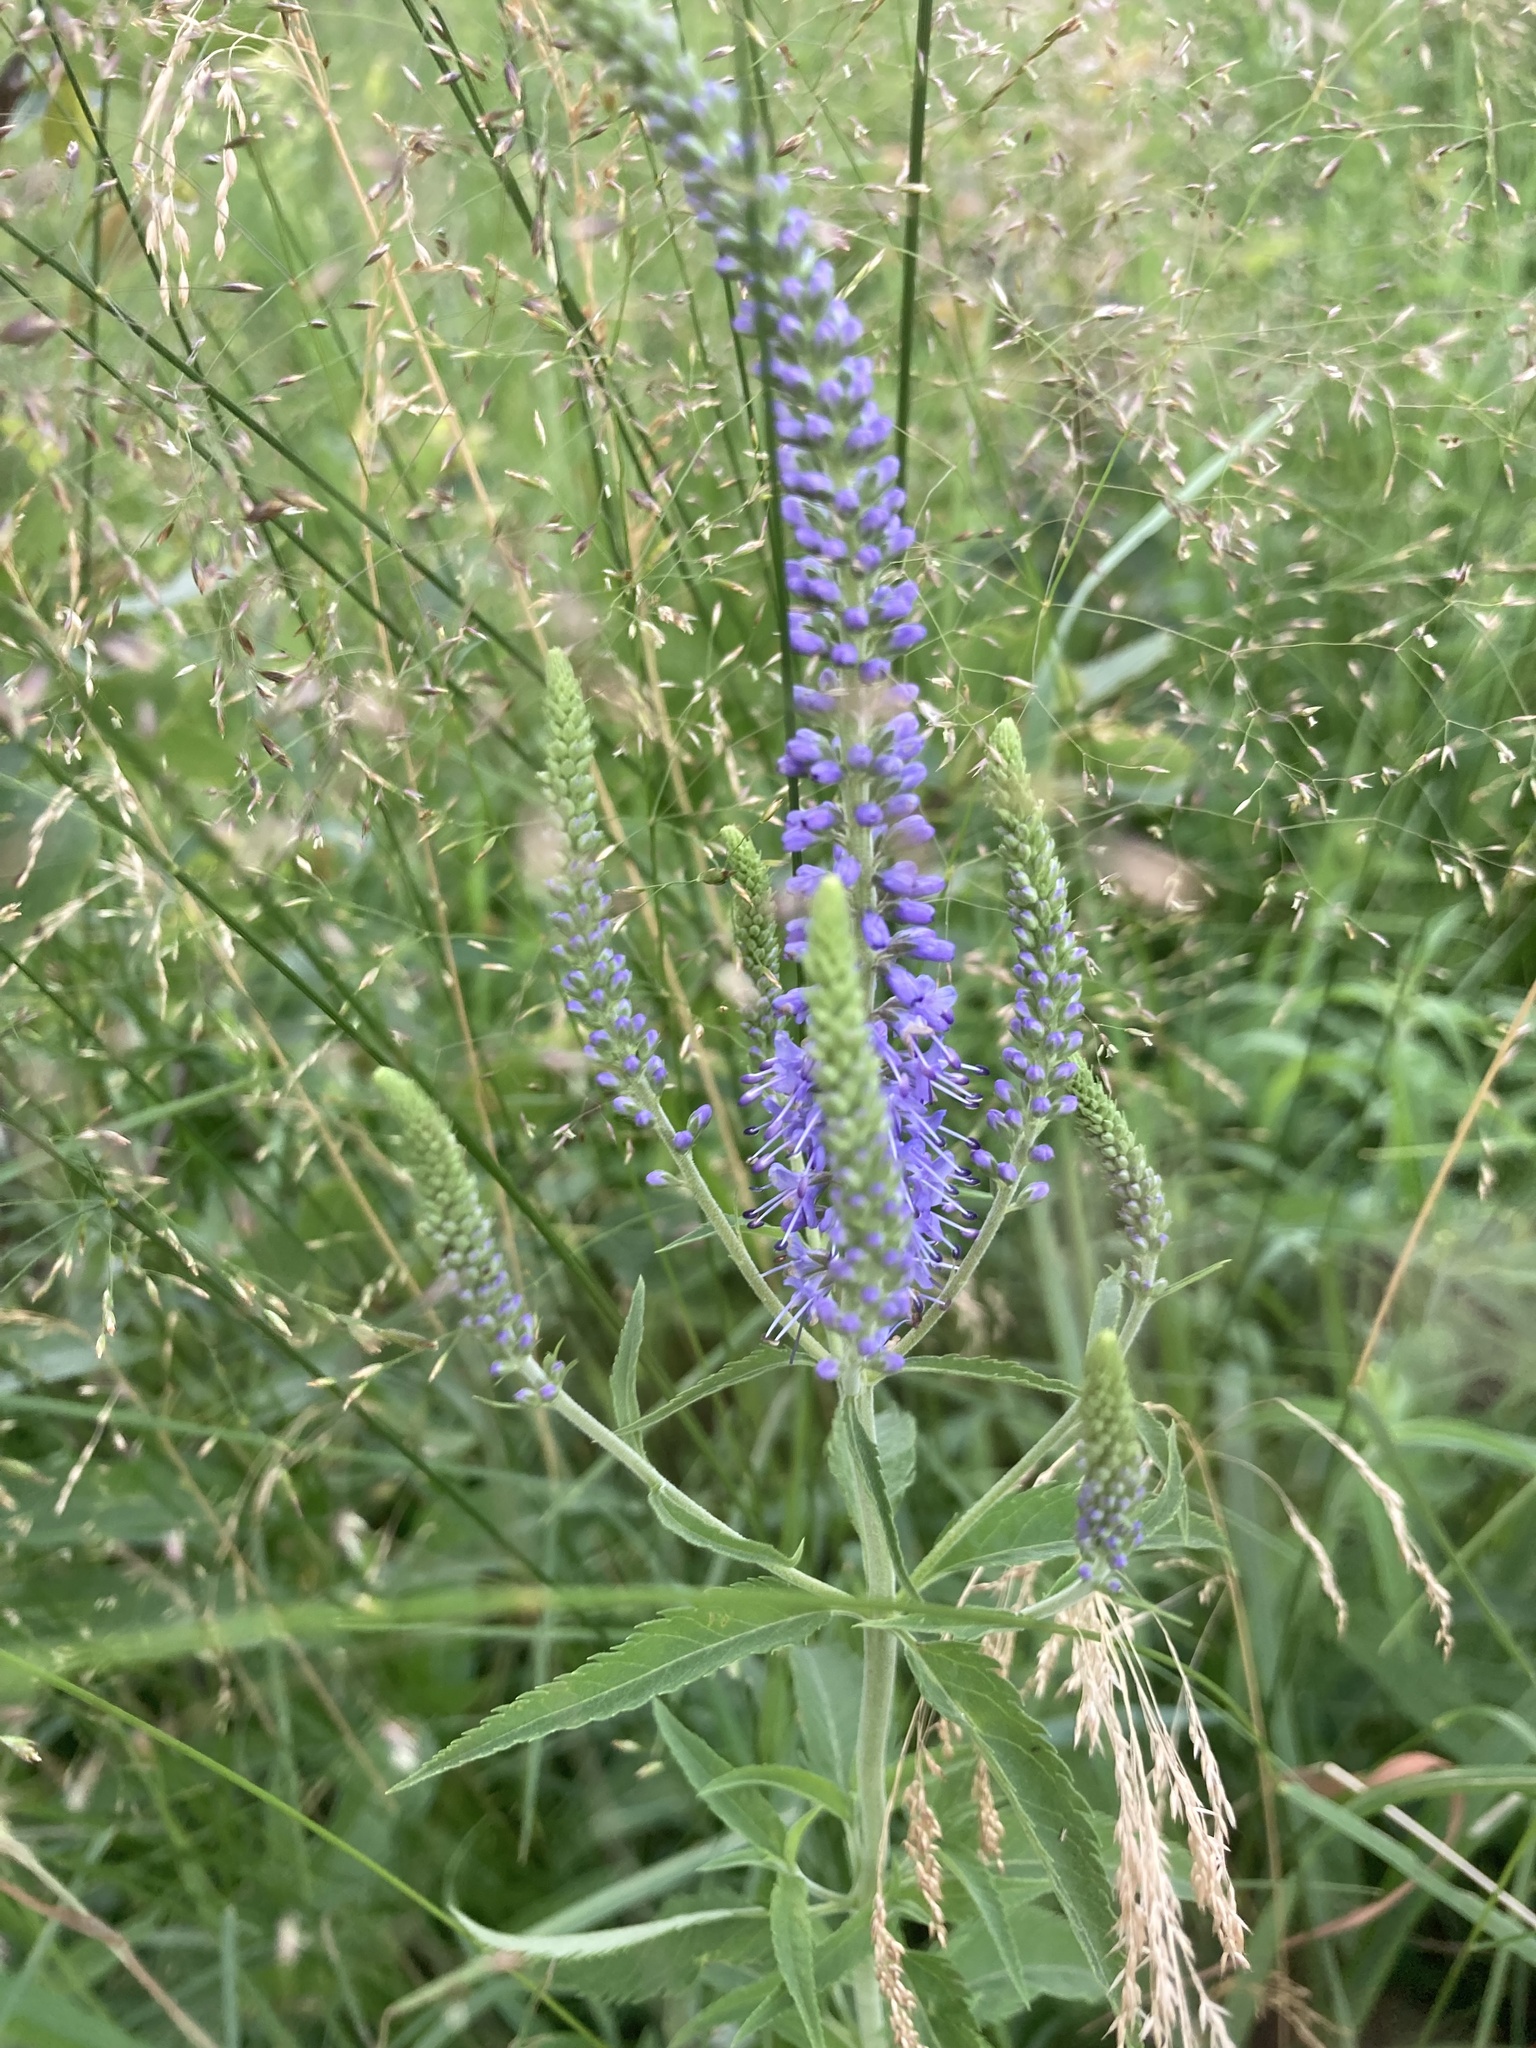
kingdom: Plantae
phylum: Tracheophyta
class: Magnoliopsida
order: Lamiales
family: Plantaginaceae
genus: Veronica
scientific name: Veronica longifolia
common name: Garden speedwell
